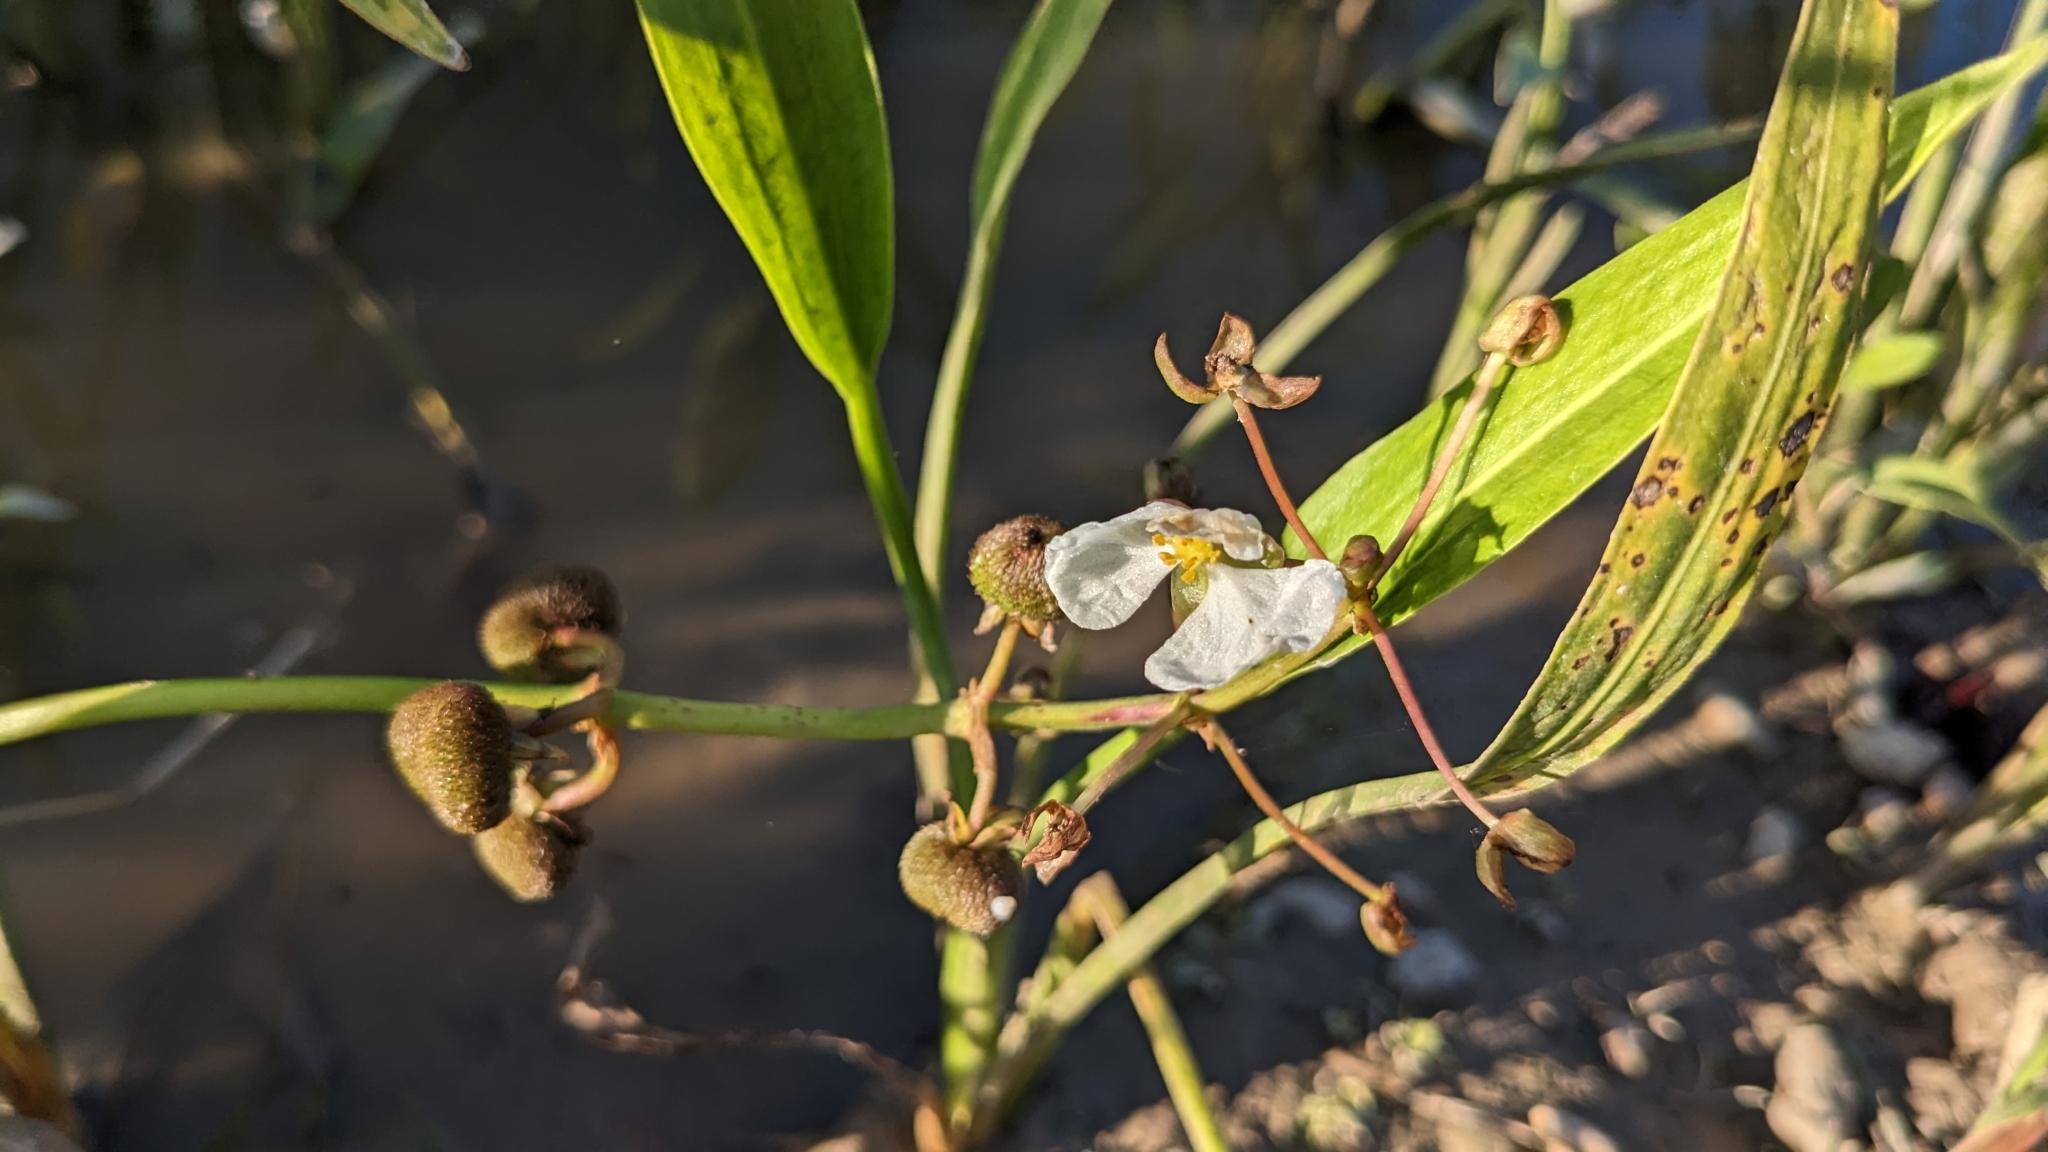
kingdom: Plantae
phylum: Tracheophyta
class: Liliopsida
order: Alismatales
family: Alismataceae
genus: Sagittaria
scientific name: Sagittaria platyphylla
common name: Broad-leaf arrowhead
